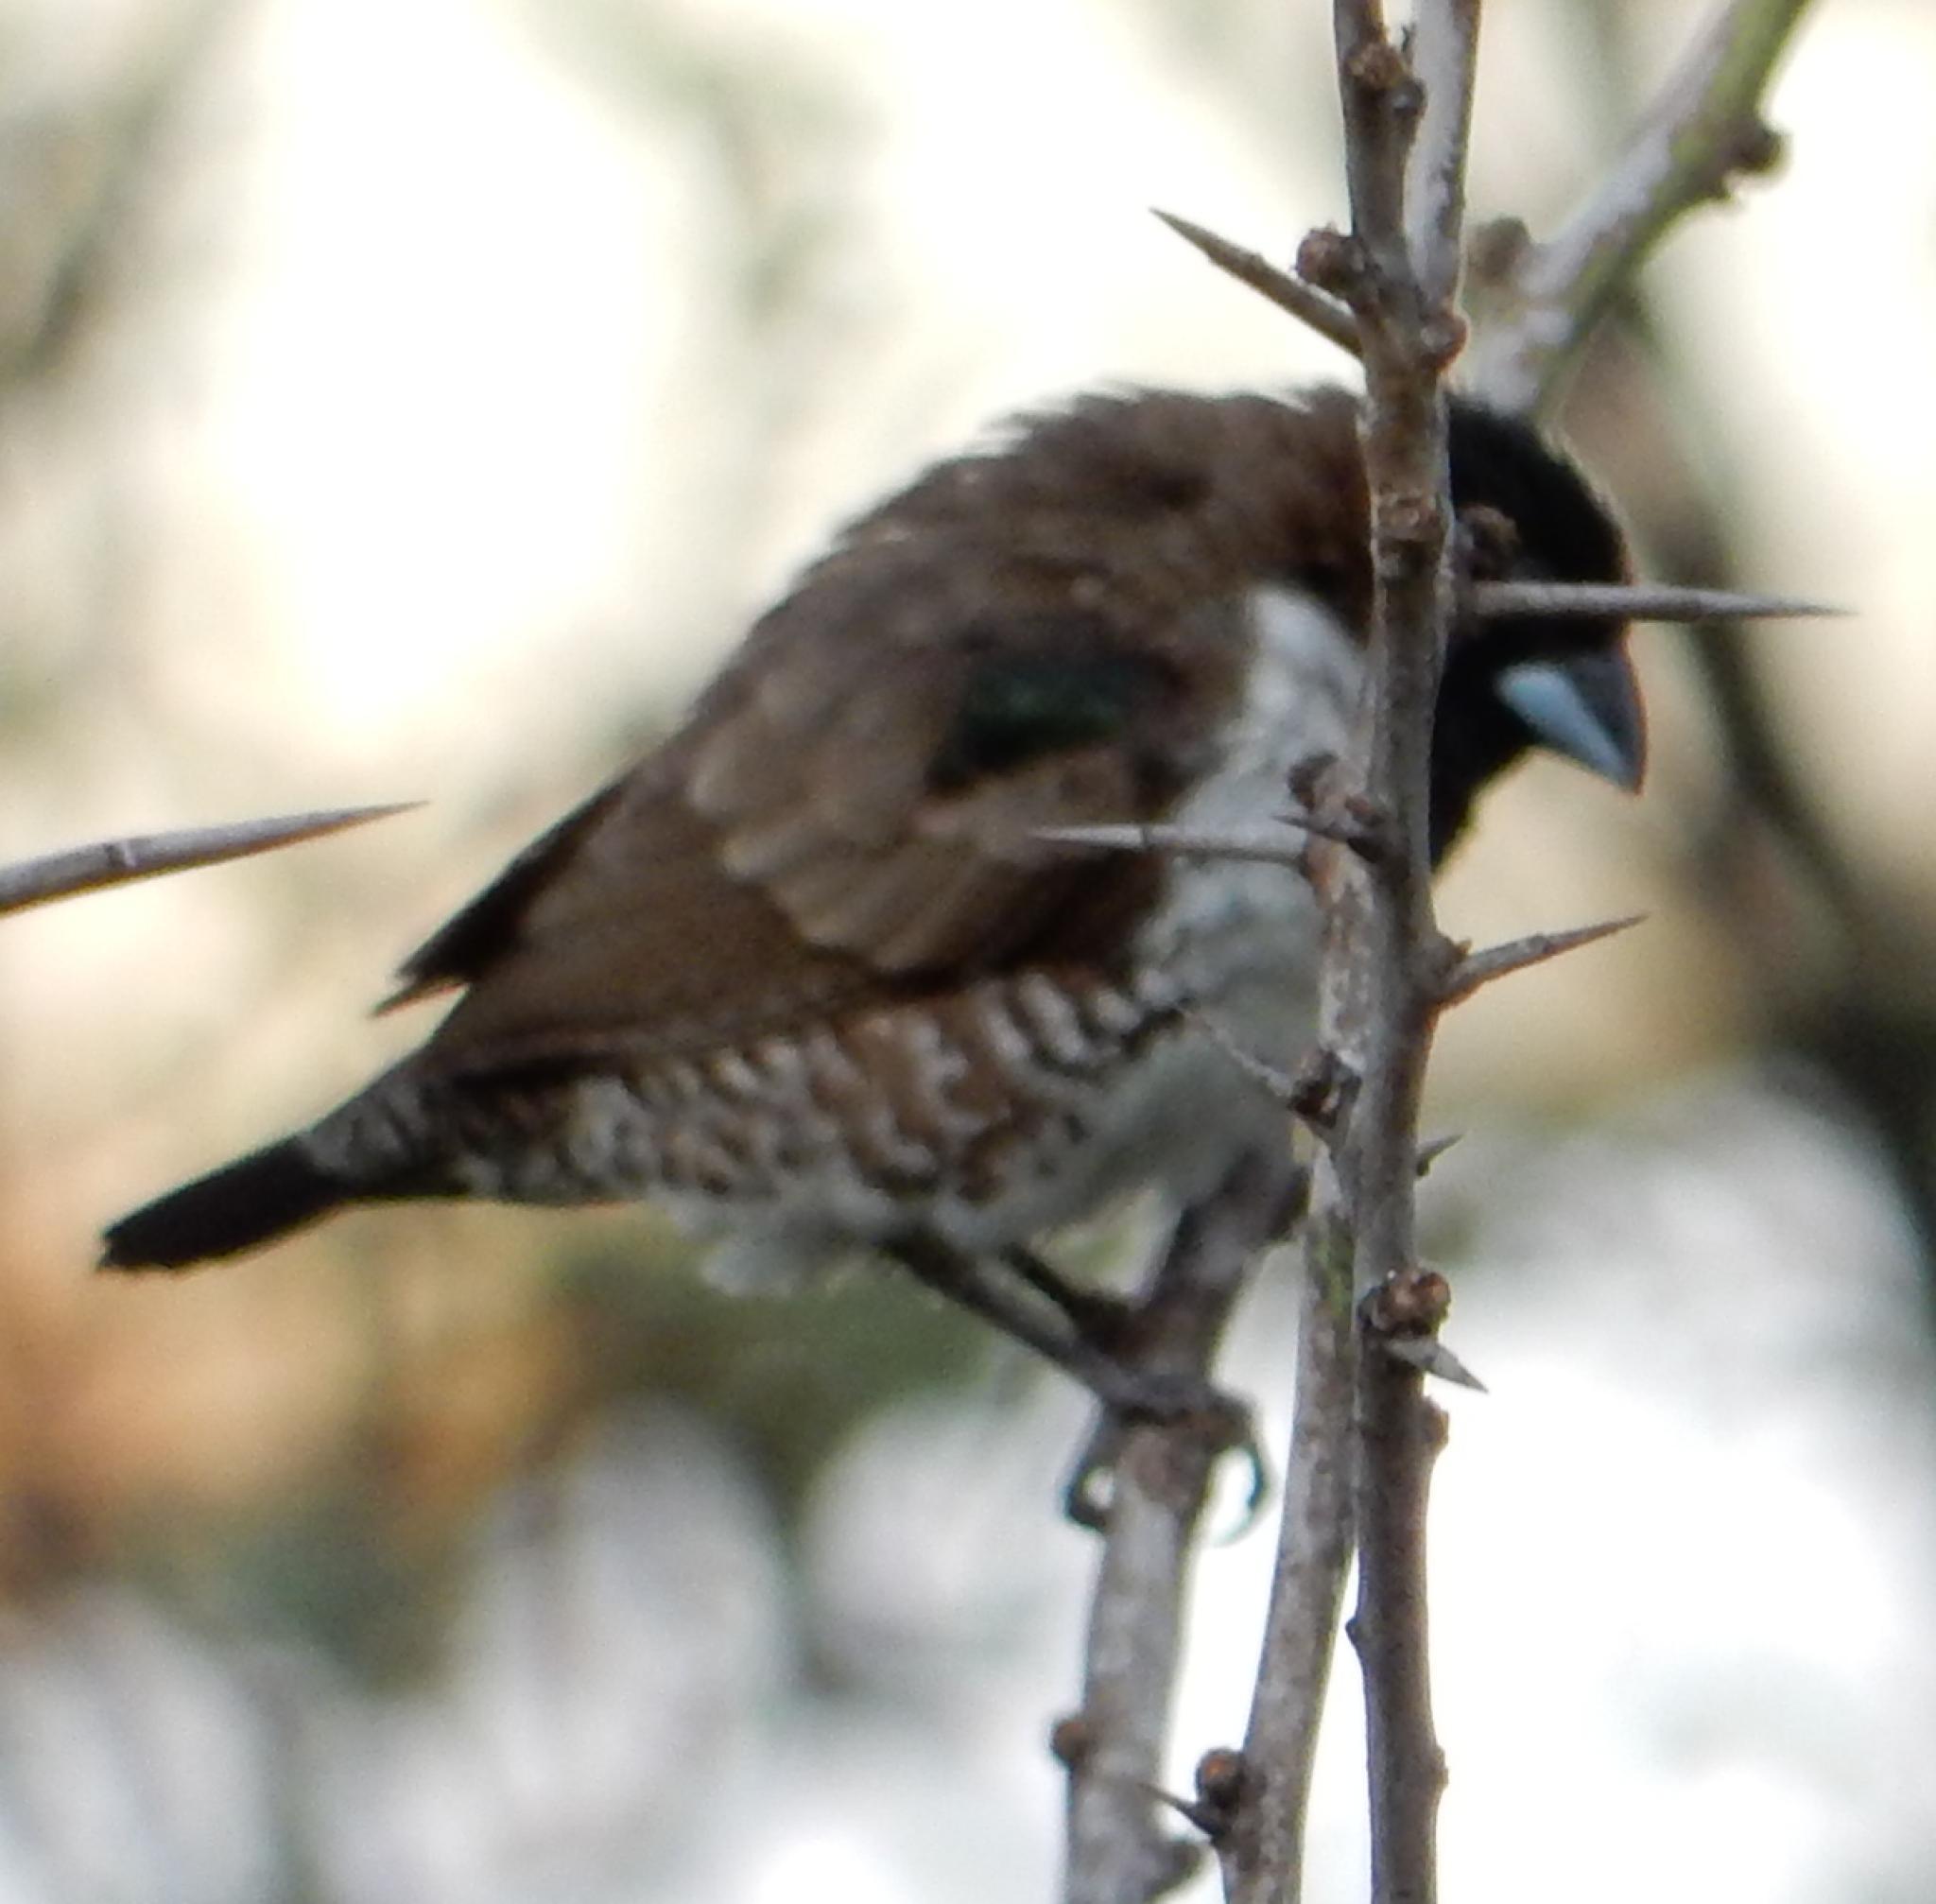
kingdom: Animalia
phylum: Chordata
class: Aves
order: Passeriformes
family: Estrildidae
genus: Lonchura
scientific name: Lonchura cucullata
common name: Bronze mannikin
